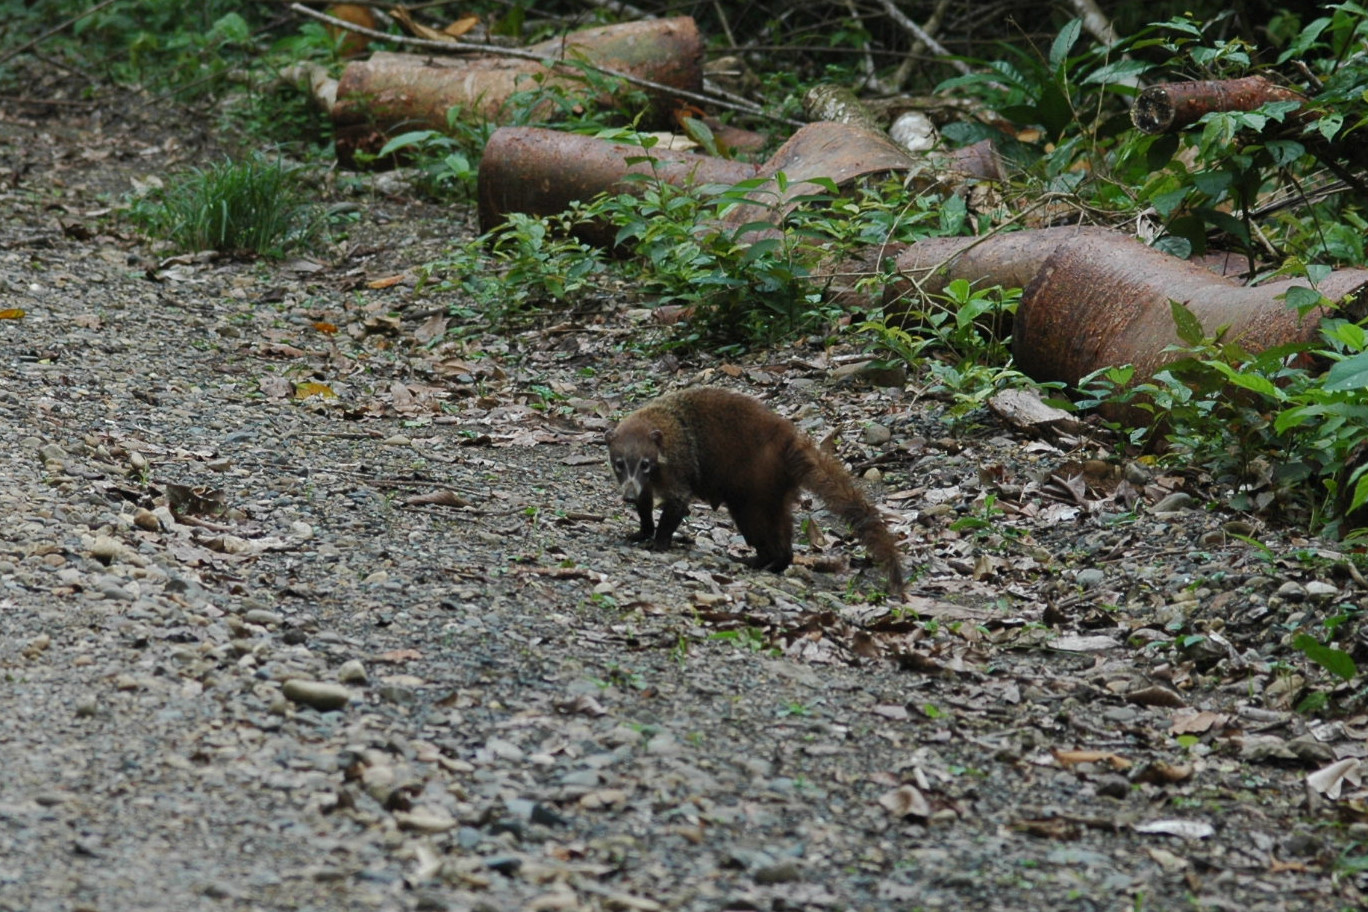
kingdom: Animalia
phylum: Chordata
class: Mammalia
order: Carnivora
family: Procyonidae
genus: Nasua
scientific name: Nasua narica
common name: White-nosed coati
